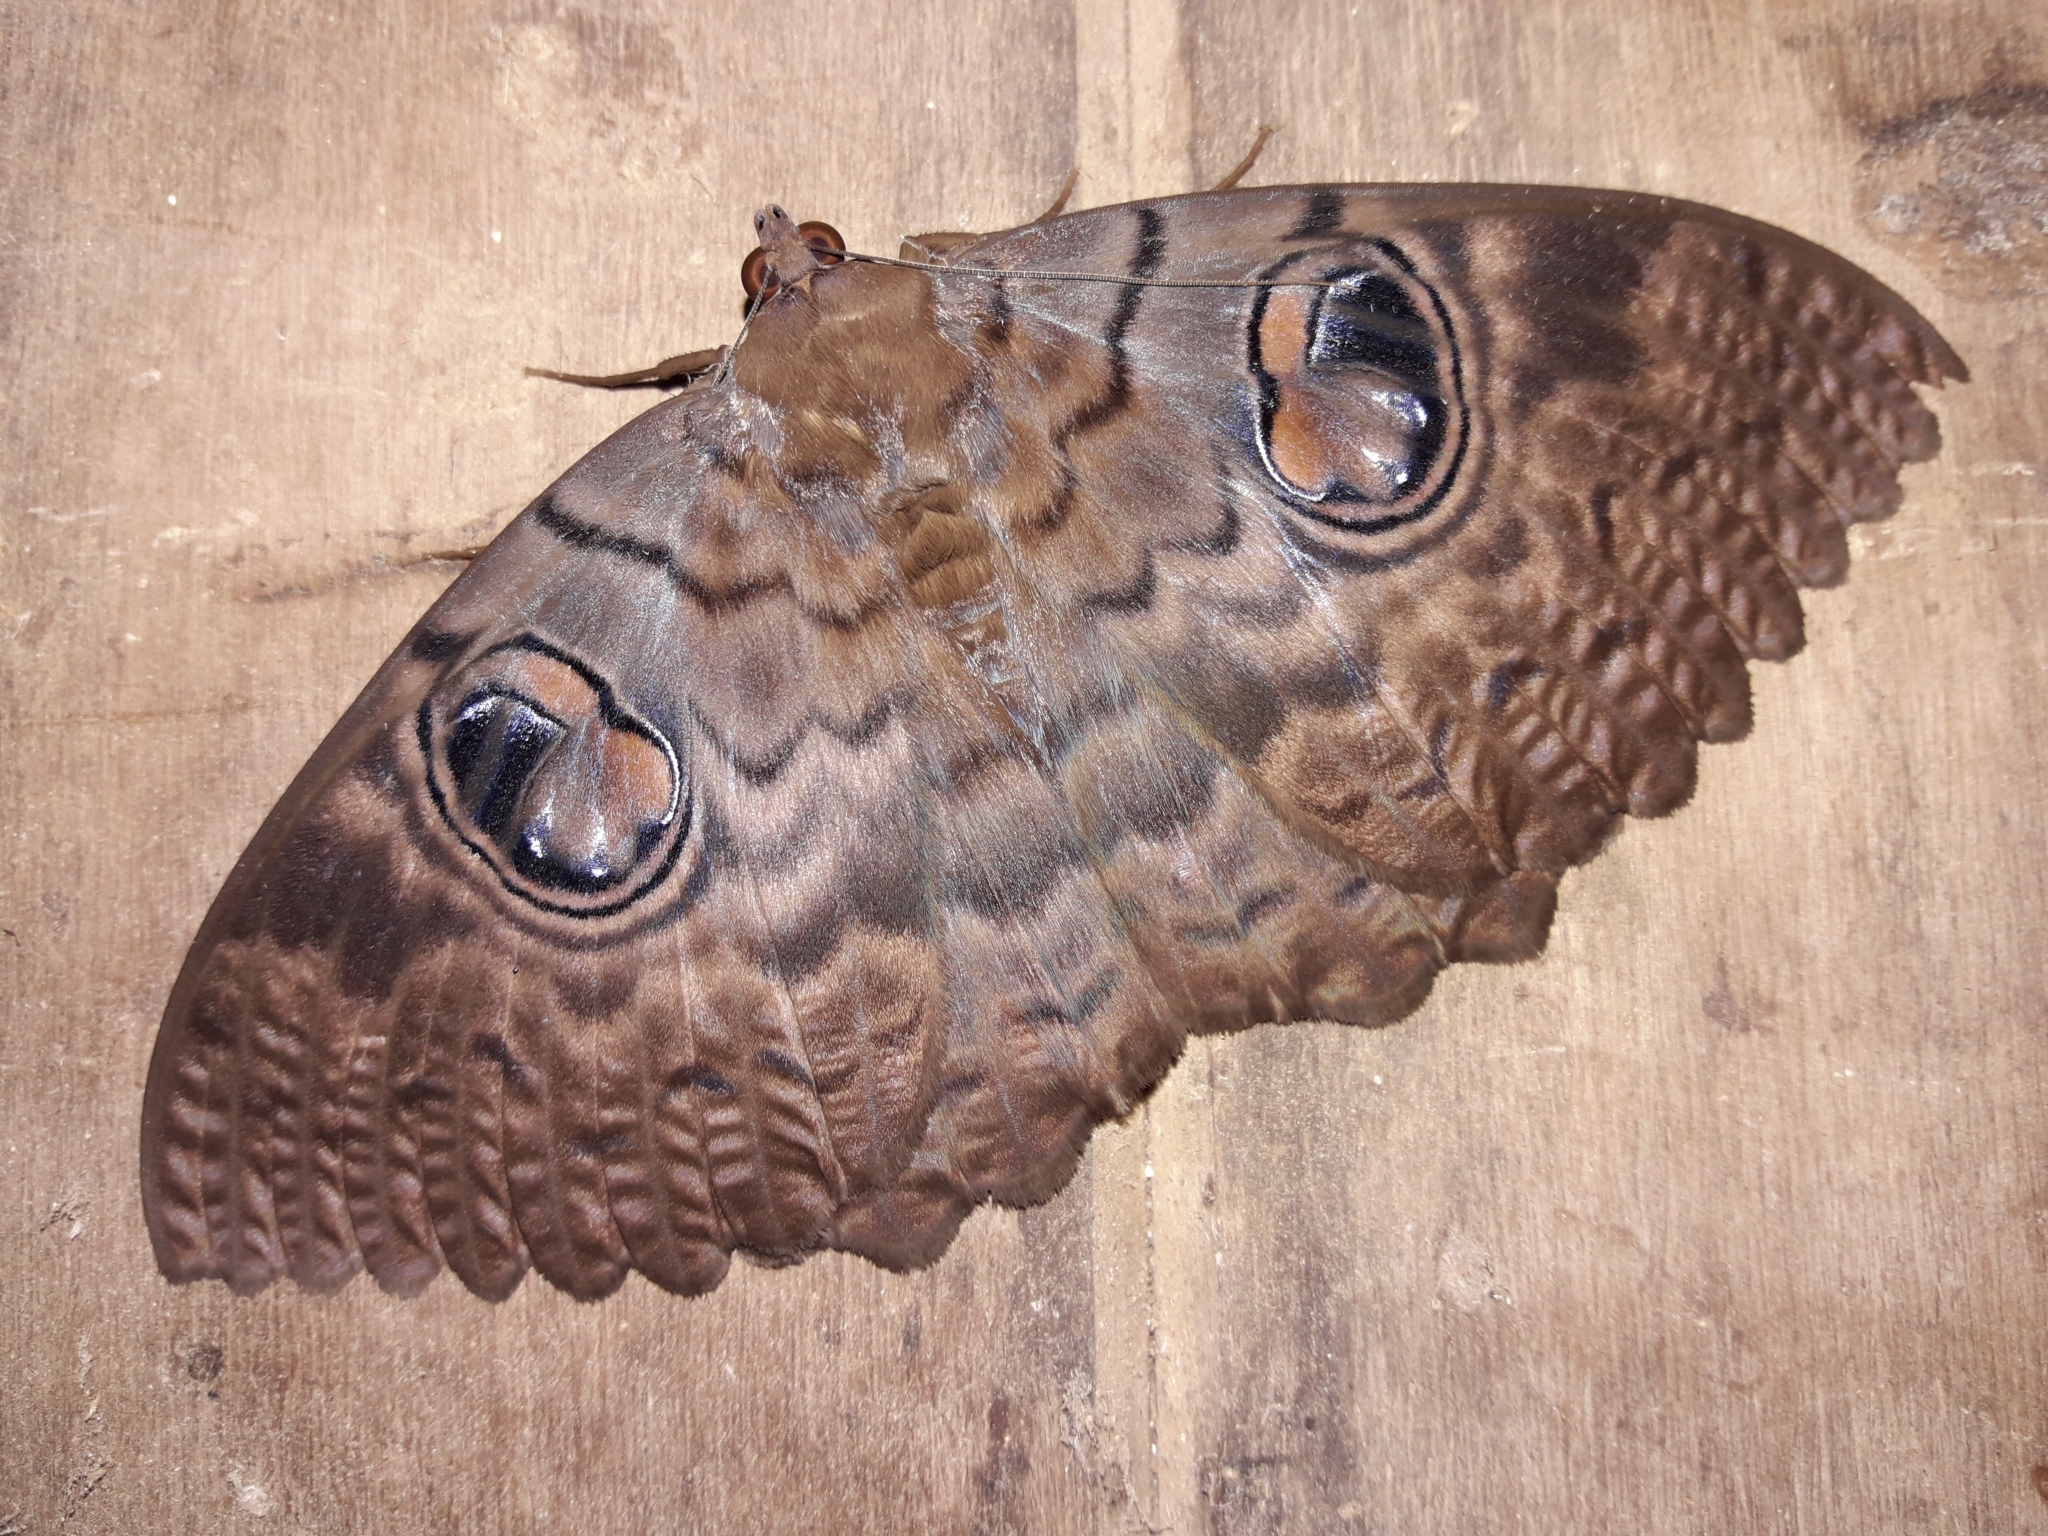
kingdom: Animalia
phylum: Arthropoda
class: Insecta
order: Lepidoptera
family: Erebidae
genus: Erebus
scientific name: Erebus walkeri
